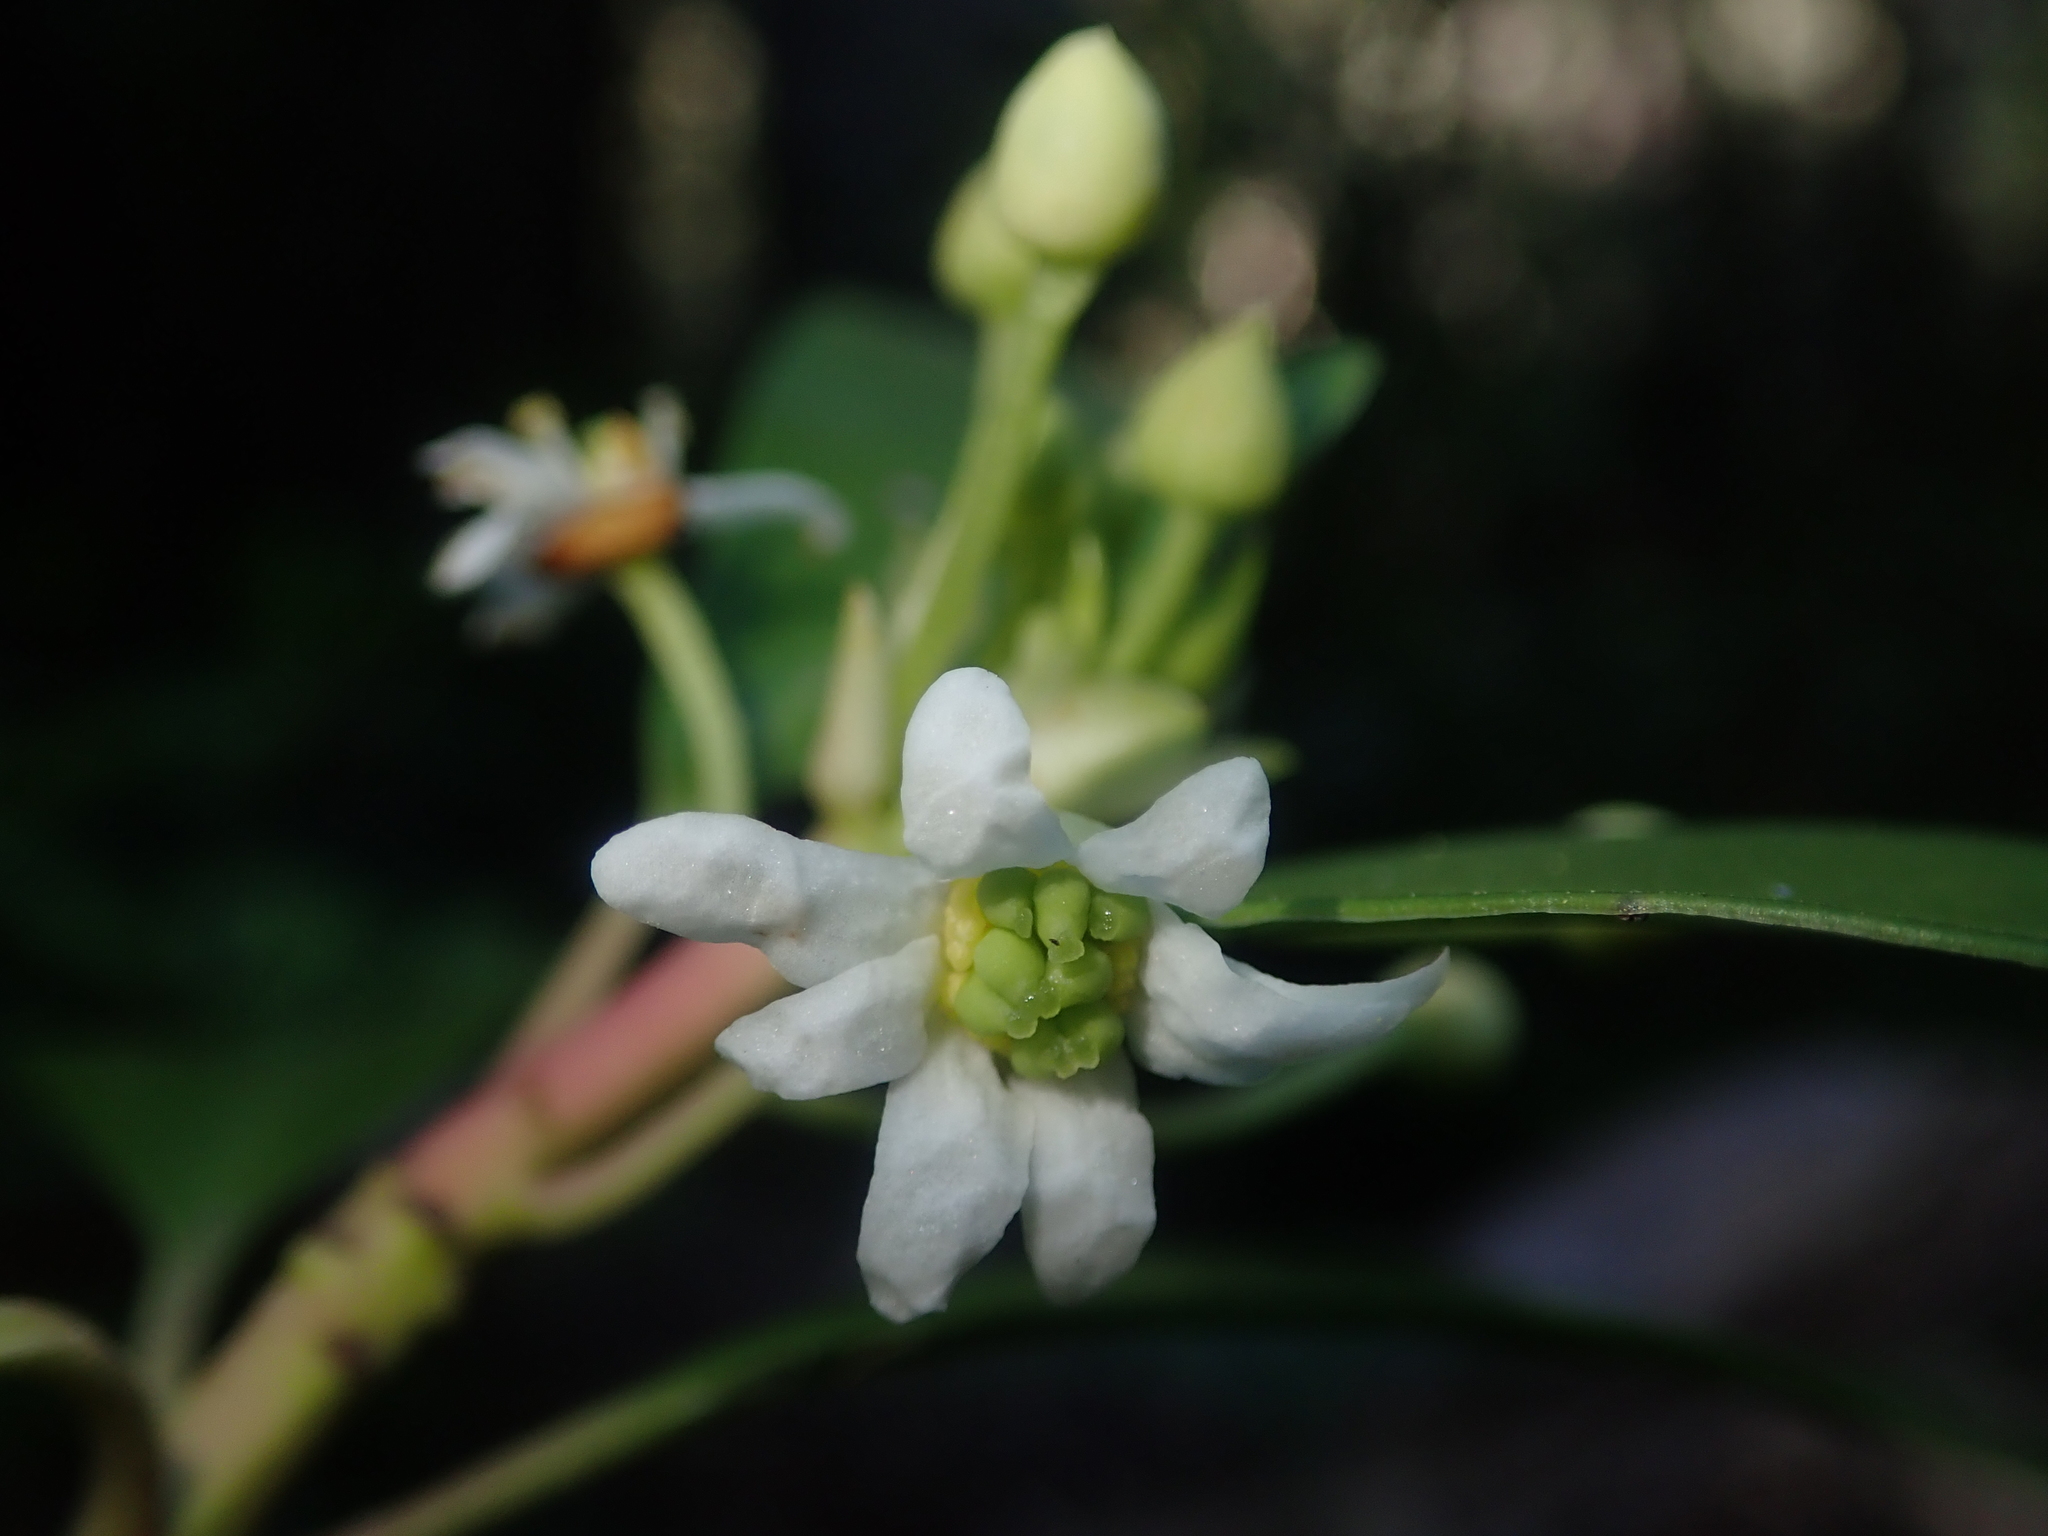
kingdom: Plantae
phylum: Tracheophyta
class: Magnoliopsida
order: Canellales
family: Winteraceae
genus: Drimys
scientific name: Drimys winteri
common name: Winter's-bark
